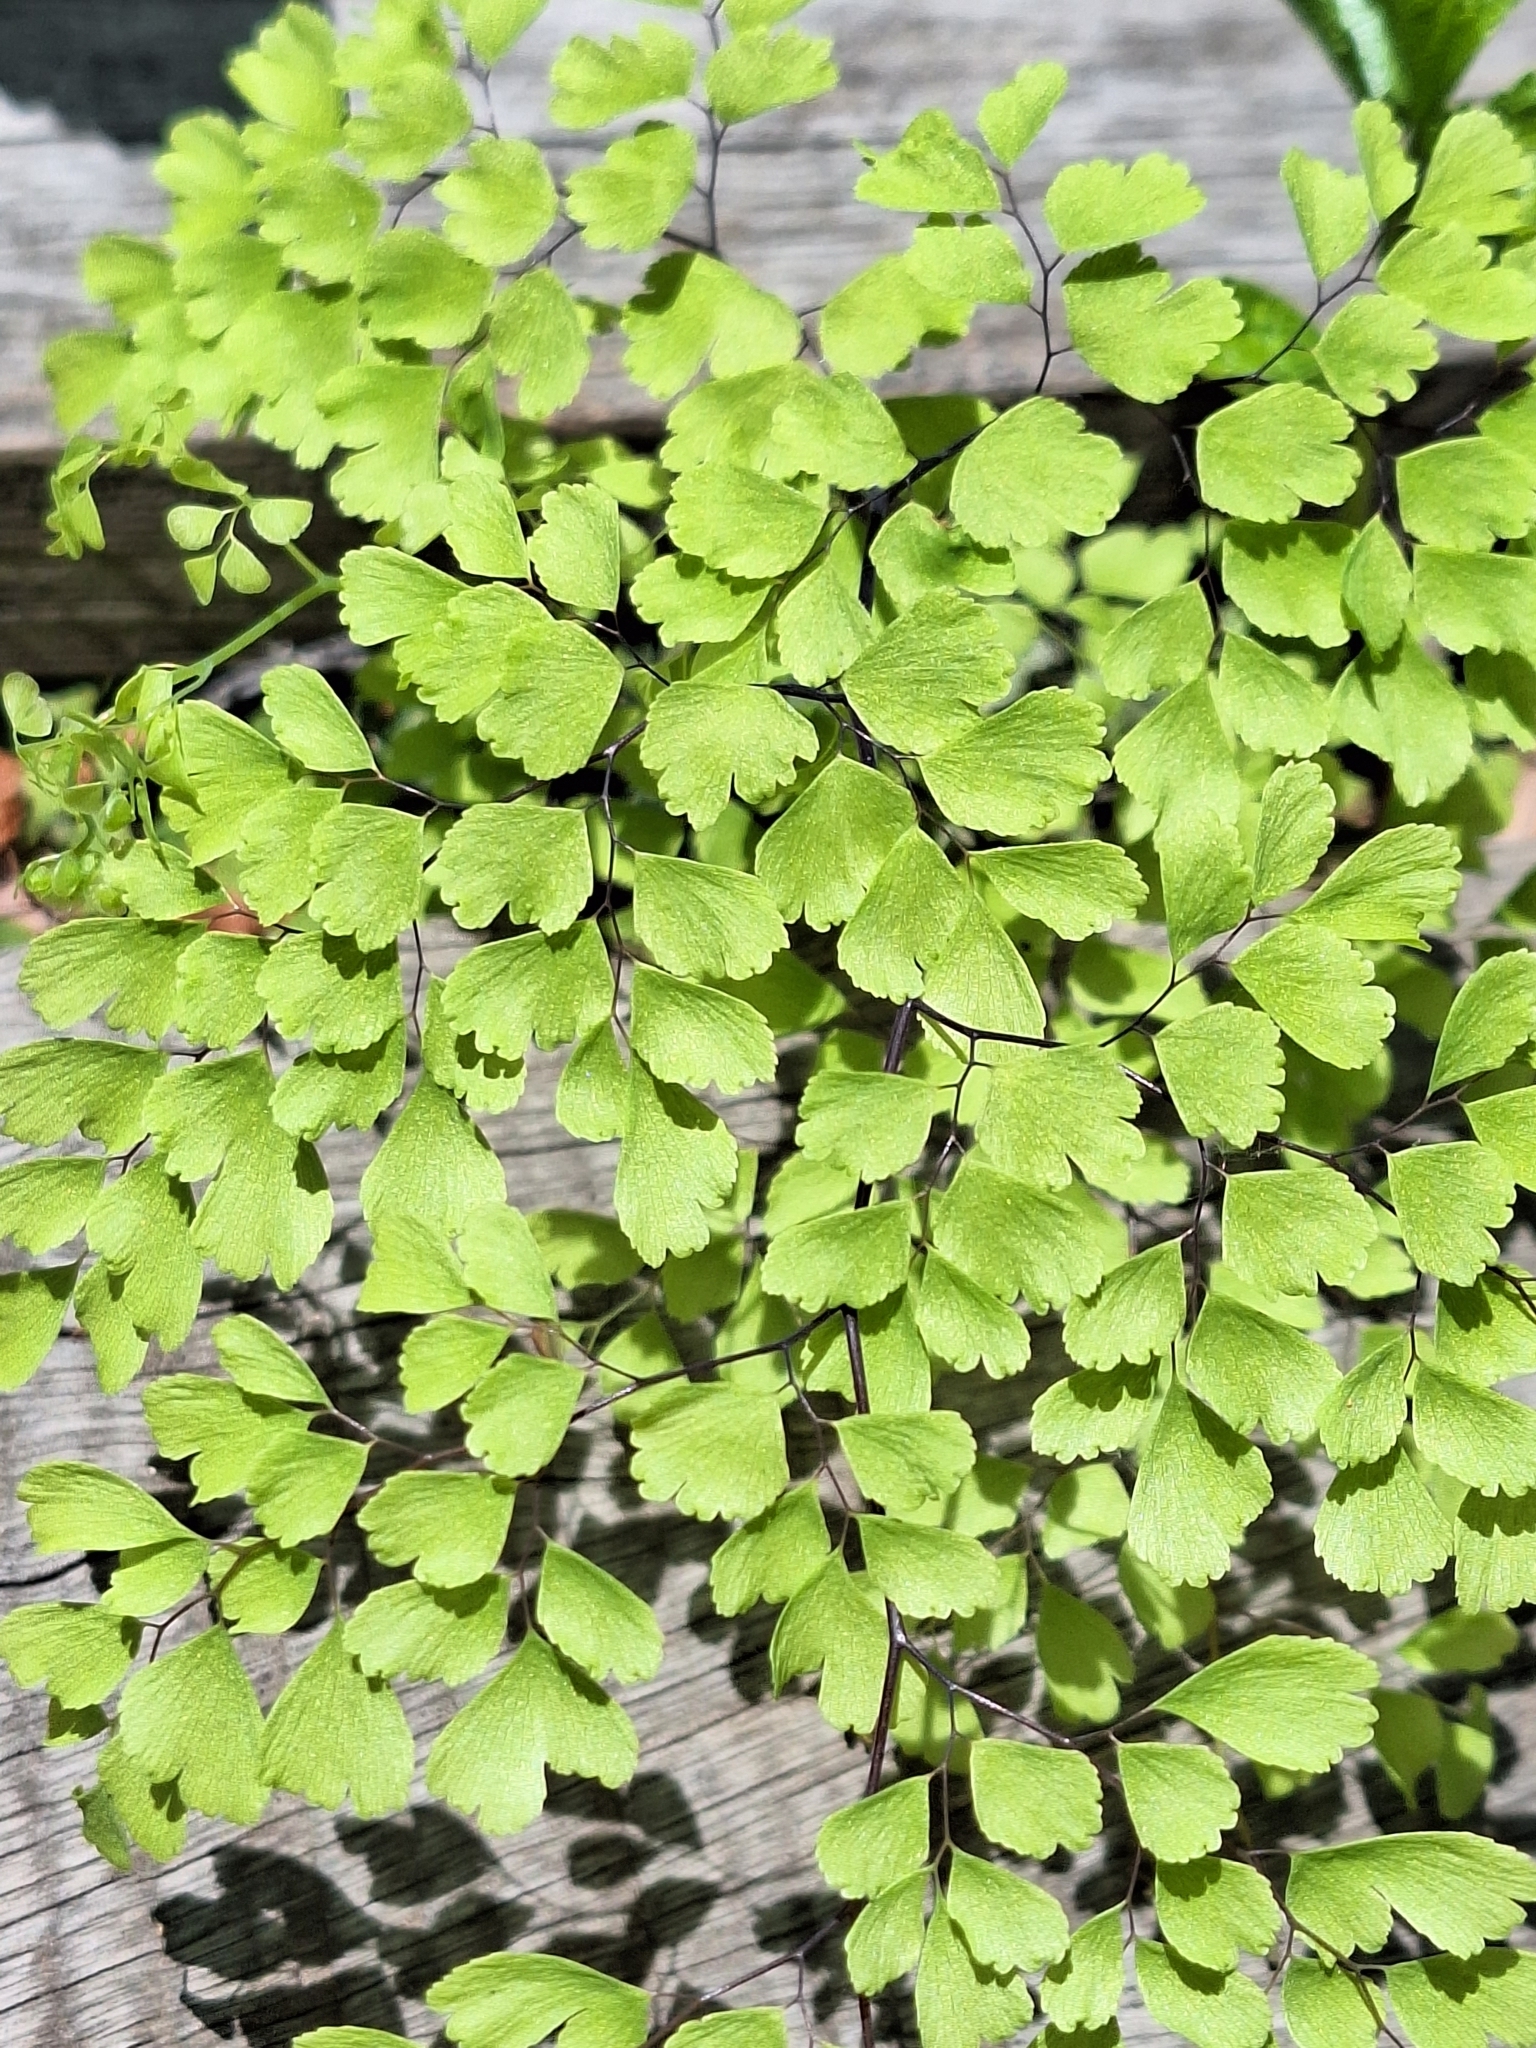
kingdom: Plantae
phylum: Tracheophyta
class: Polypodiopsida
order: Polypodiales
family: Pteridaceae
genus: Adiantum
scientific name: Adiantum raddianum
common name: Delta maidenhair fern
